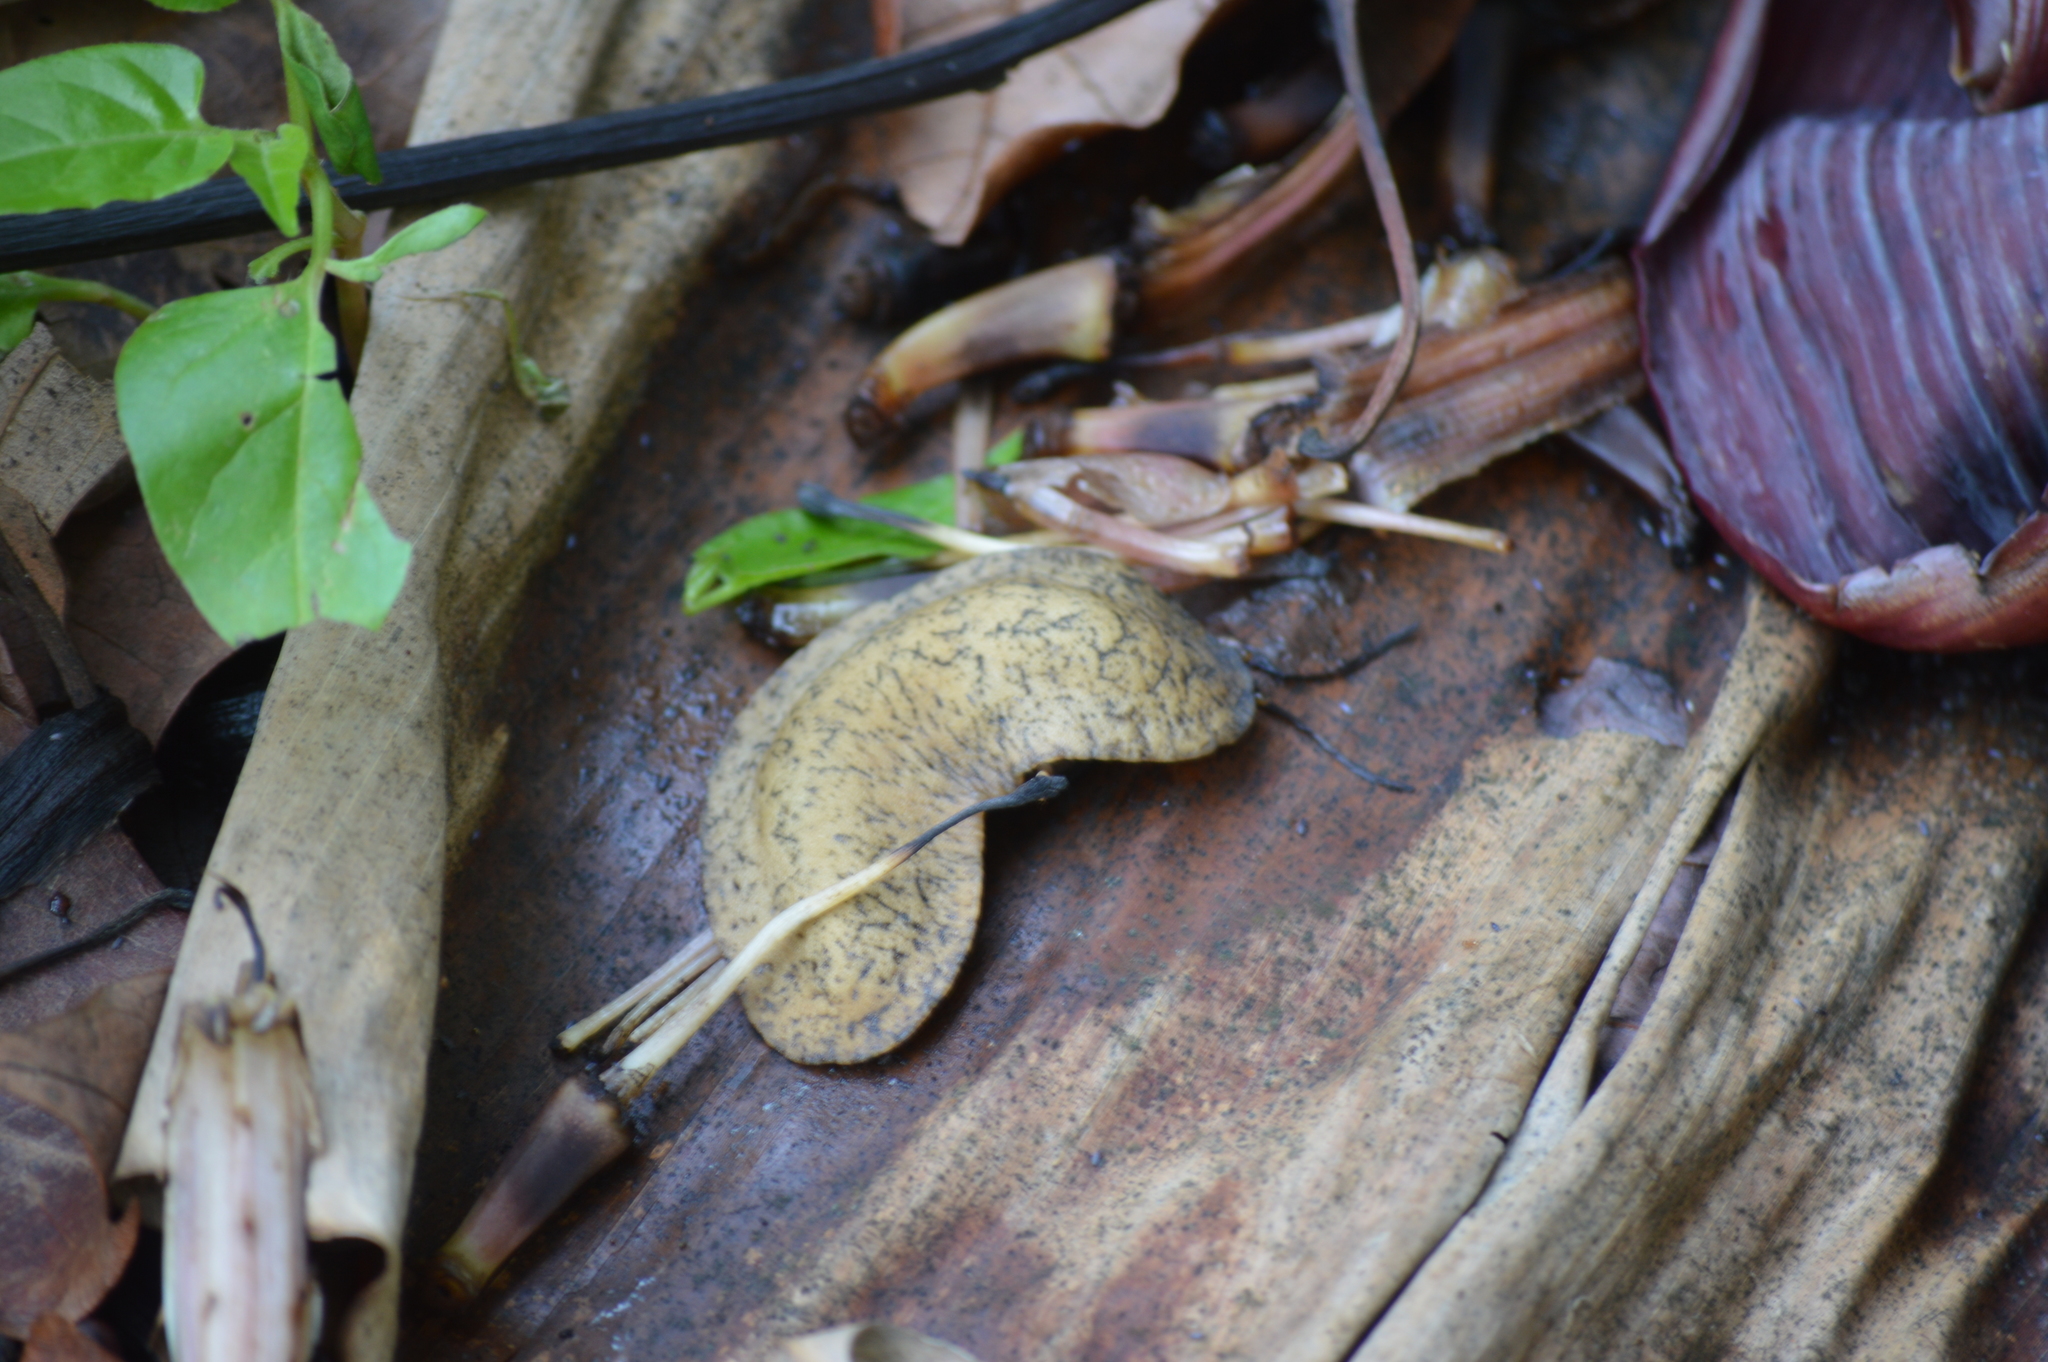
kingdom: Animalia
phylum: Mollusca
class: Gastropoda
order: Systellommatophora
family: Veronicellidae
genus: Sarasinula
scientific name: Sarasinula linguaeformis
